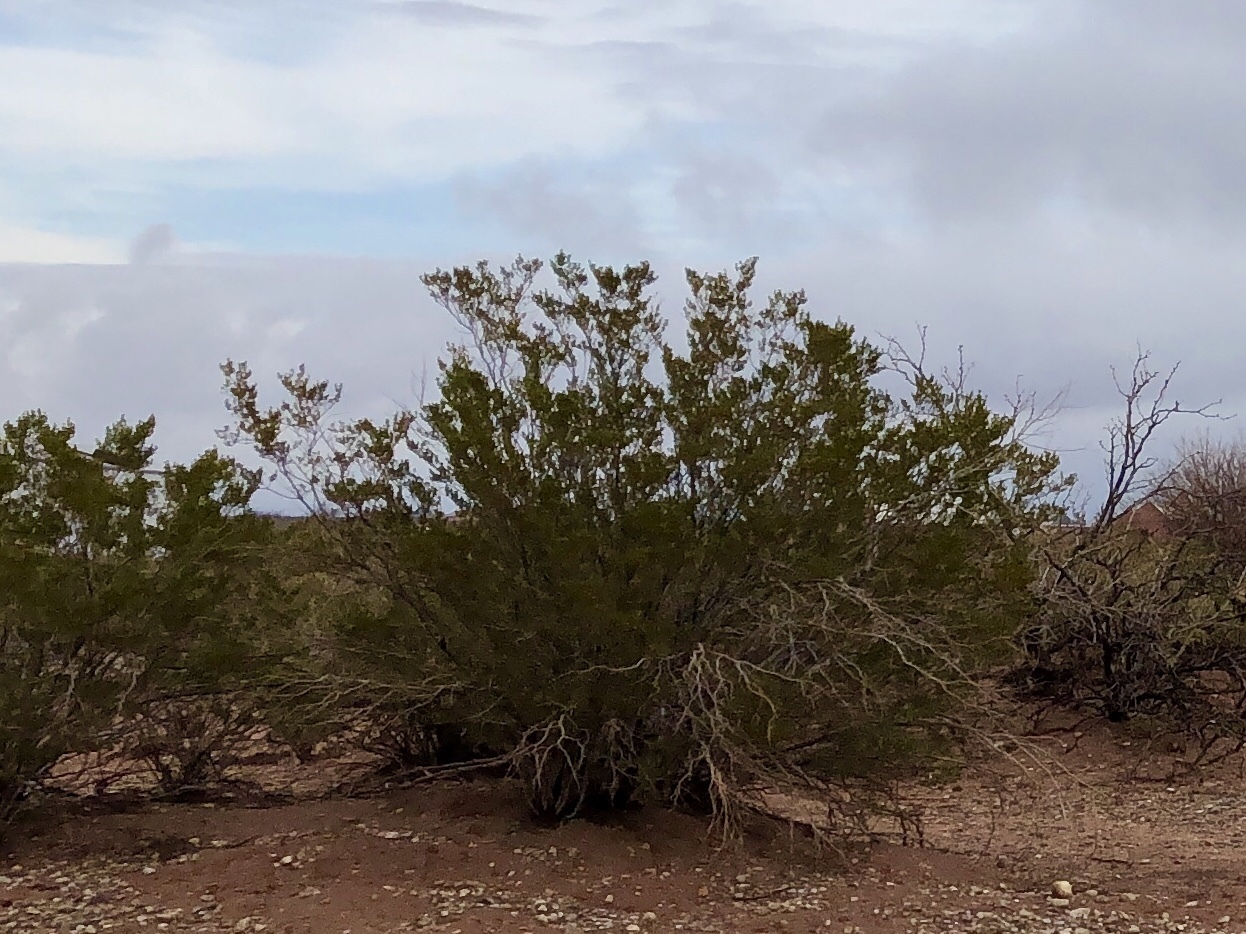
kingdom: Plantae
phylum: Tracheophyta
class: Magnoliopsida
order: Zygophyllales
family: Zygophyllaceae
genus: Larrea
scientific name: Larrea tridentata
